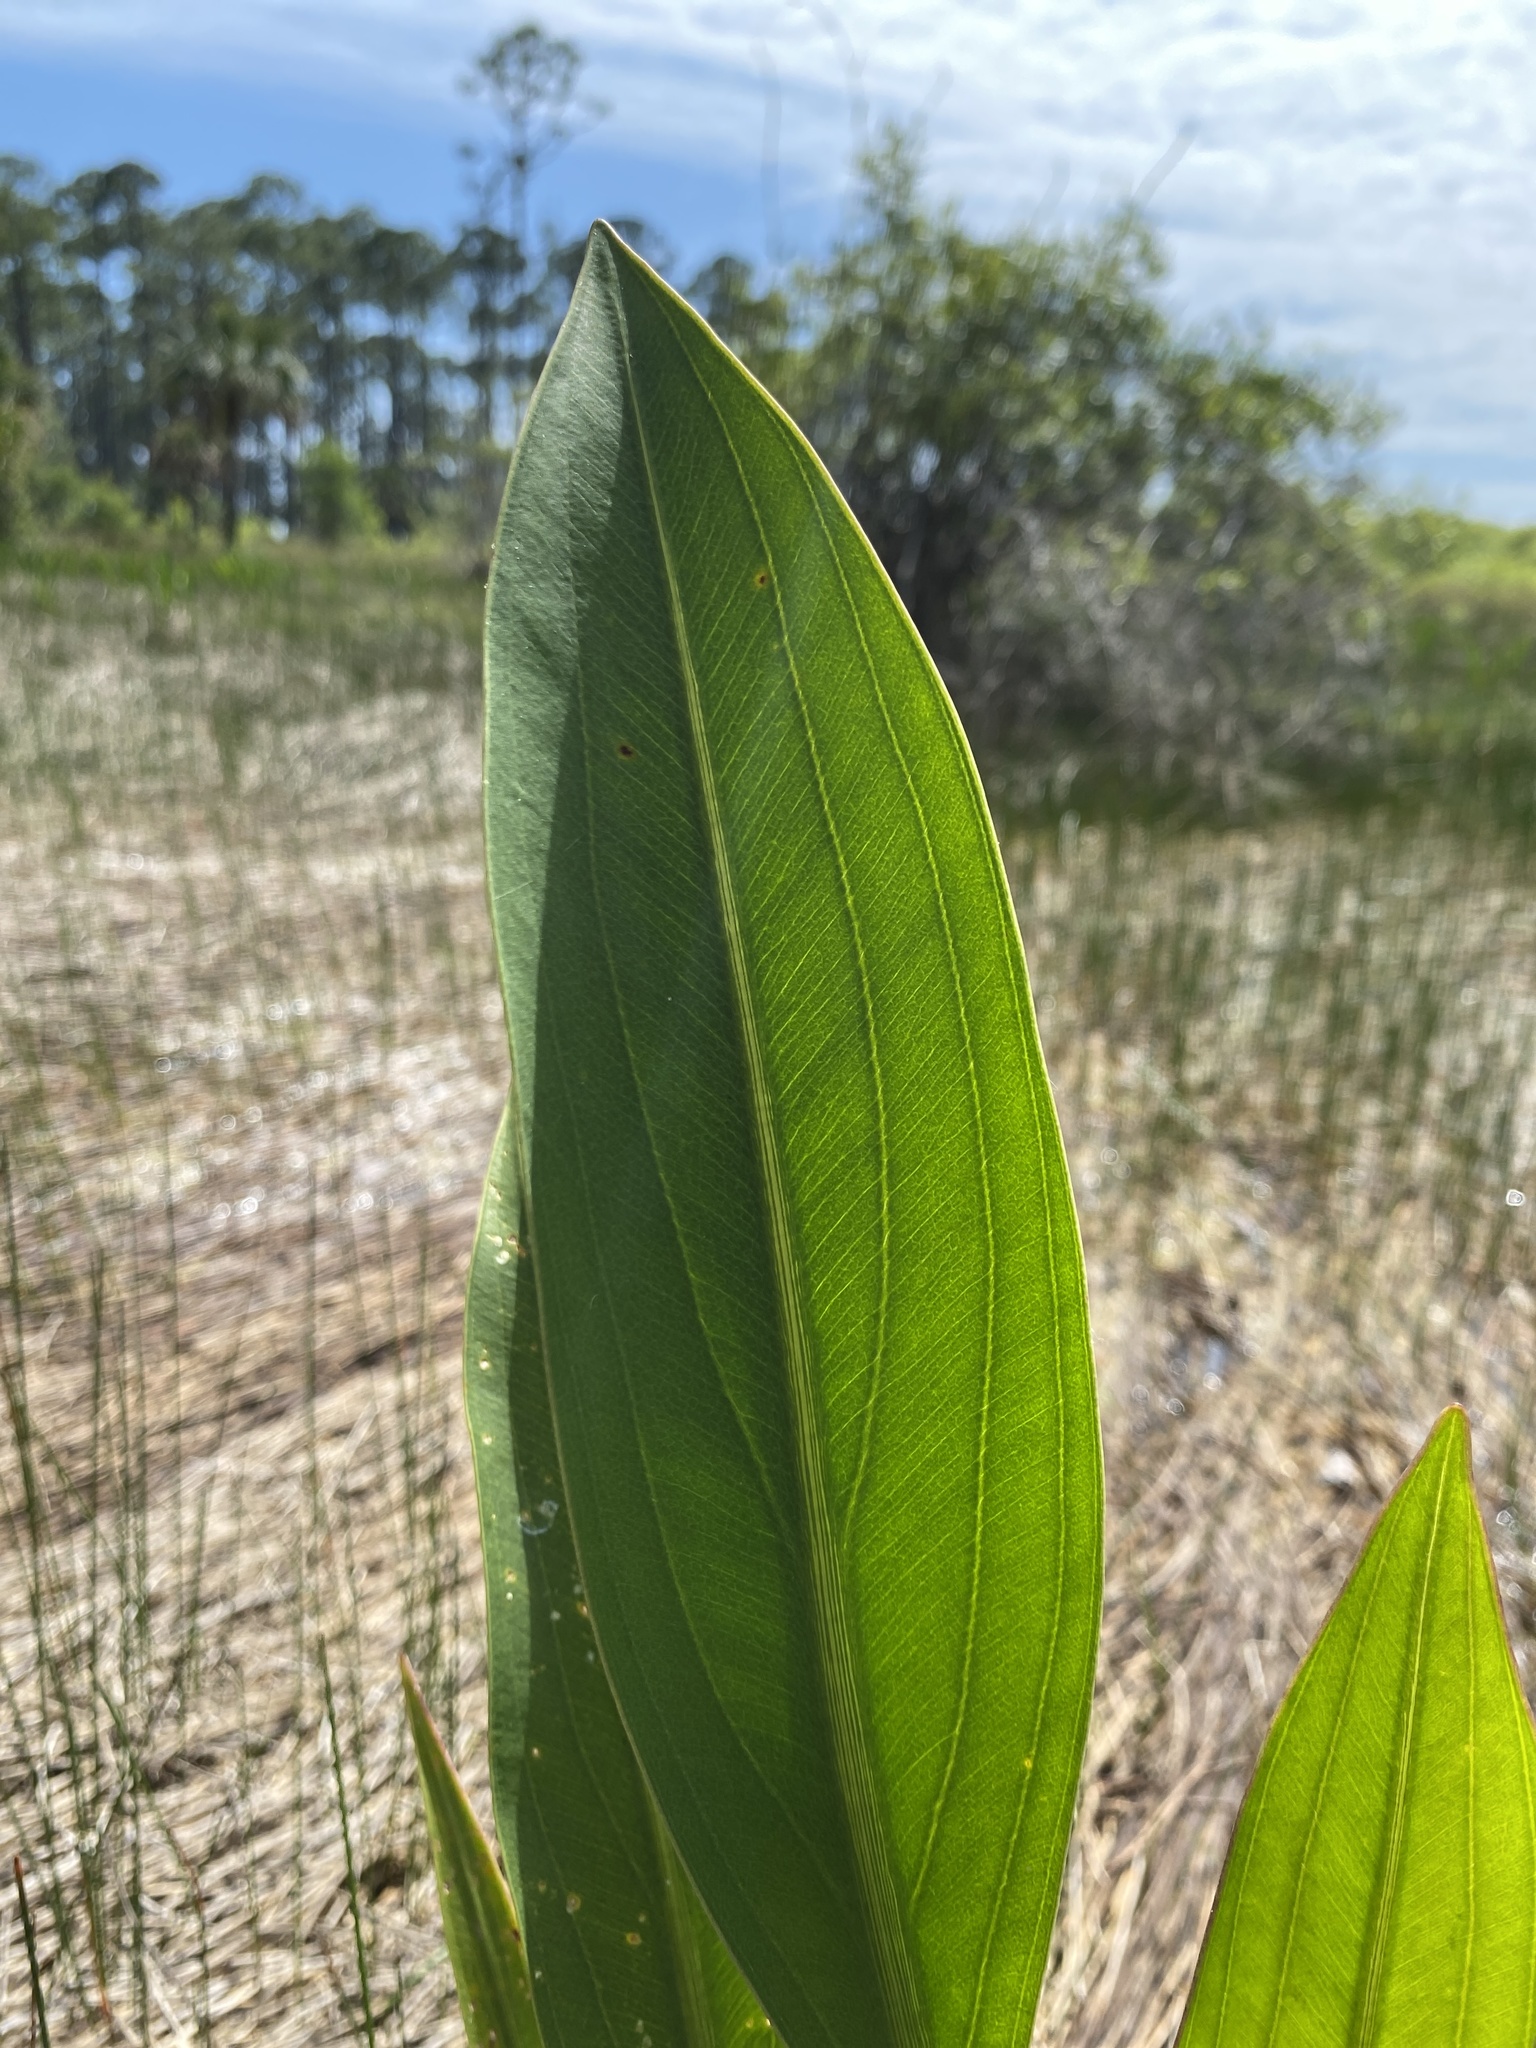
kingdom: Plantae
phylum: Tracheophyta
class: Liliopsida
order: Alismatales
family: Alismataceae
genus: Sagittaria
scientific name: Sagittaria lancifolia
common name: Lance-leaf arrowhead
